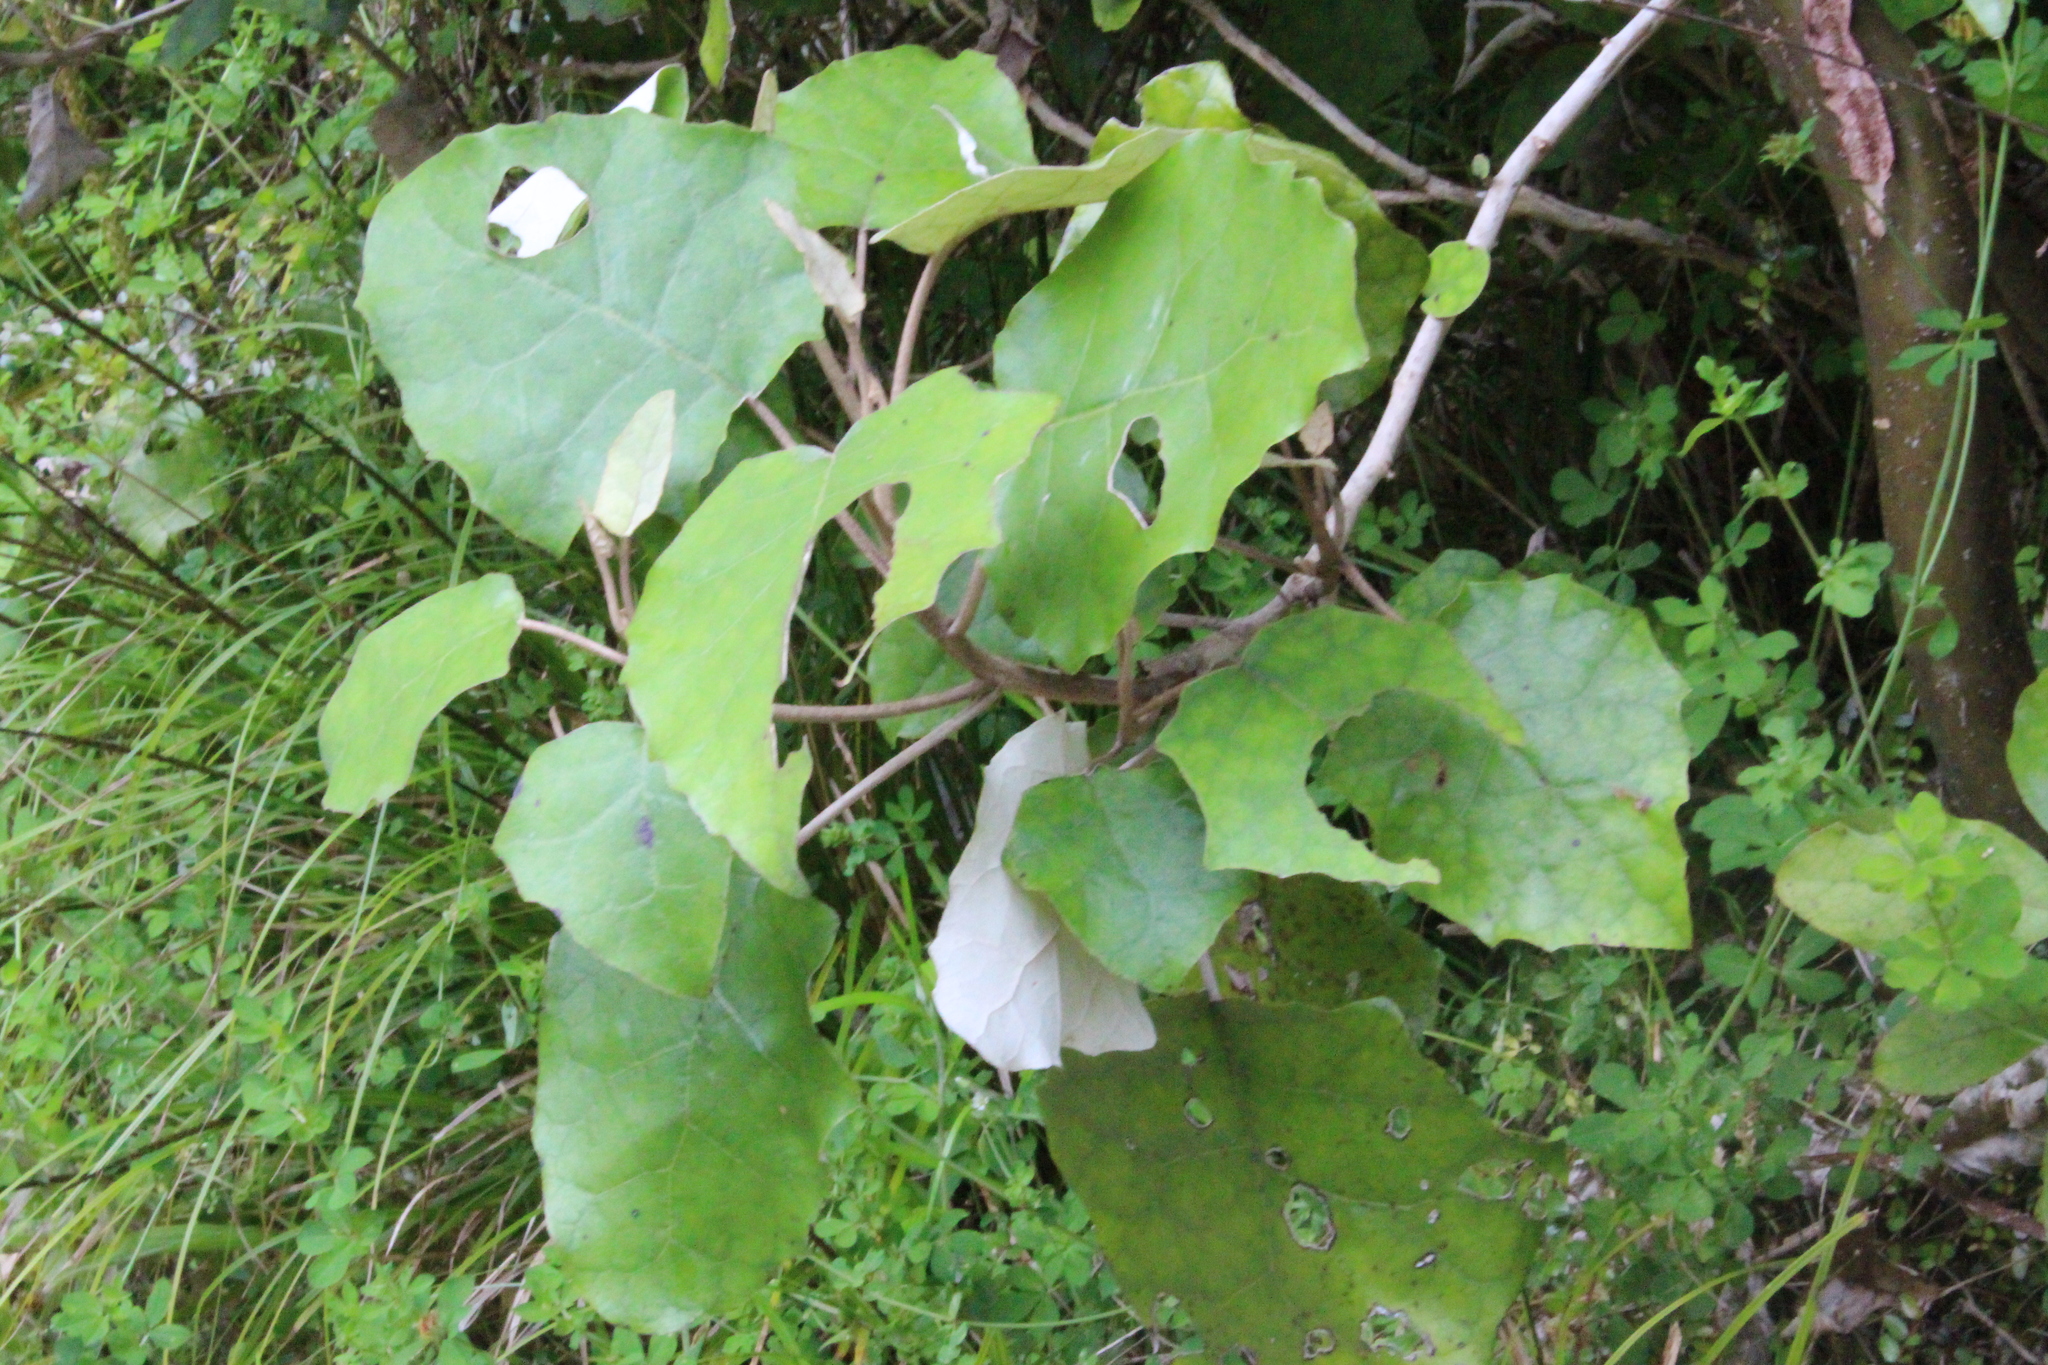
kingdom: Plantae
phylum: Tracheophyta
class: Magnoliopsida
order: Asterales
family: Asteraceae
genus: Brachyglottis
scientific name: Brachyglottis repanda
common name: Hedge ragwort
